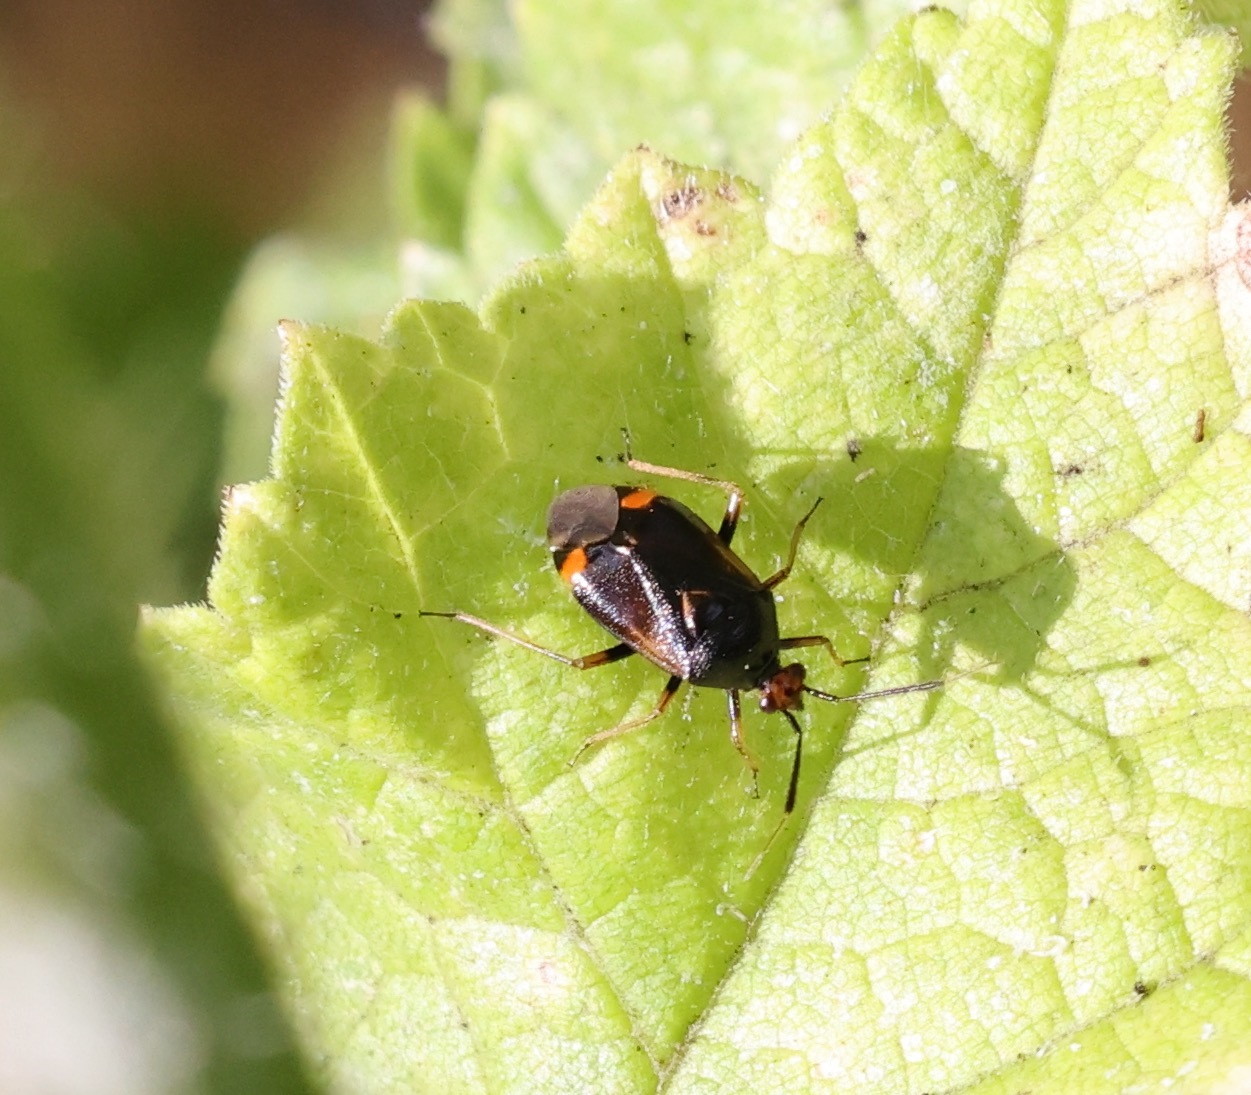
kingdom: Animalia
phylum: Arthropoda
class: Insecta
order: Hemiptera
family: Miridae
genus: Deraeocoris
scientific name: Deraeocoris ruber
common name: Plant bug
